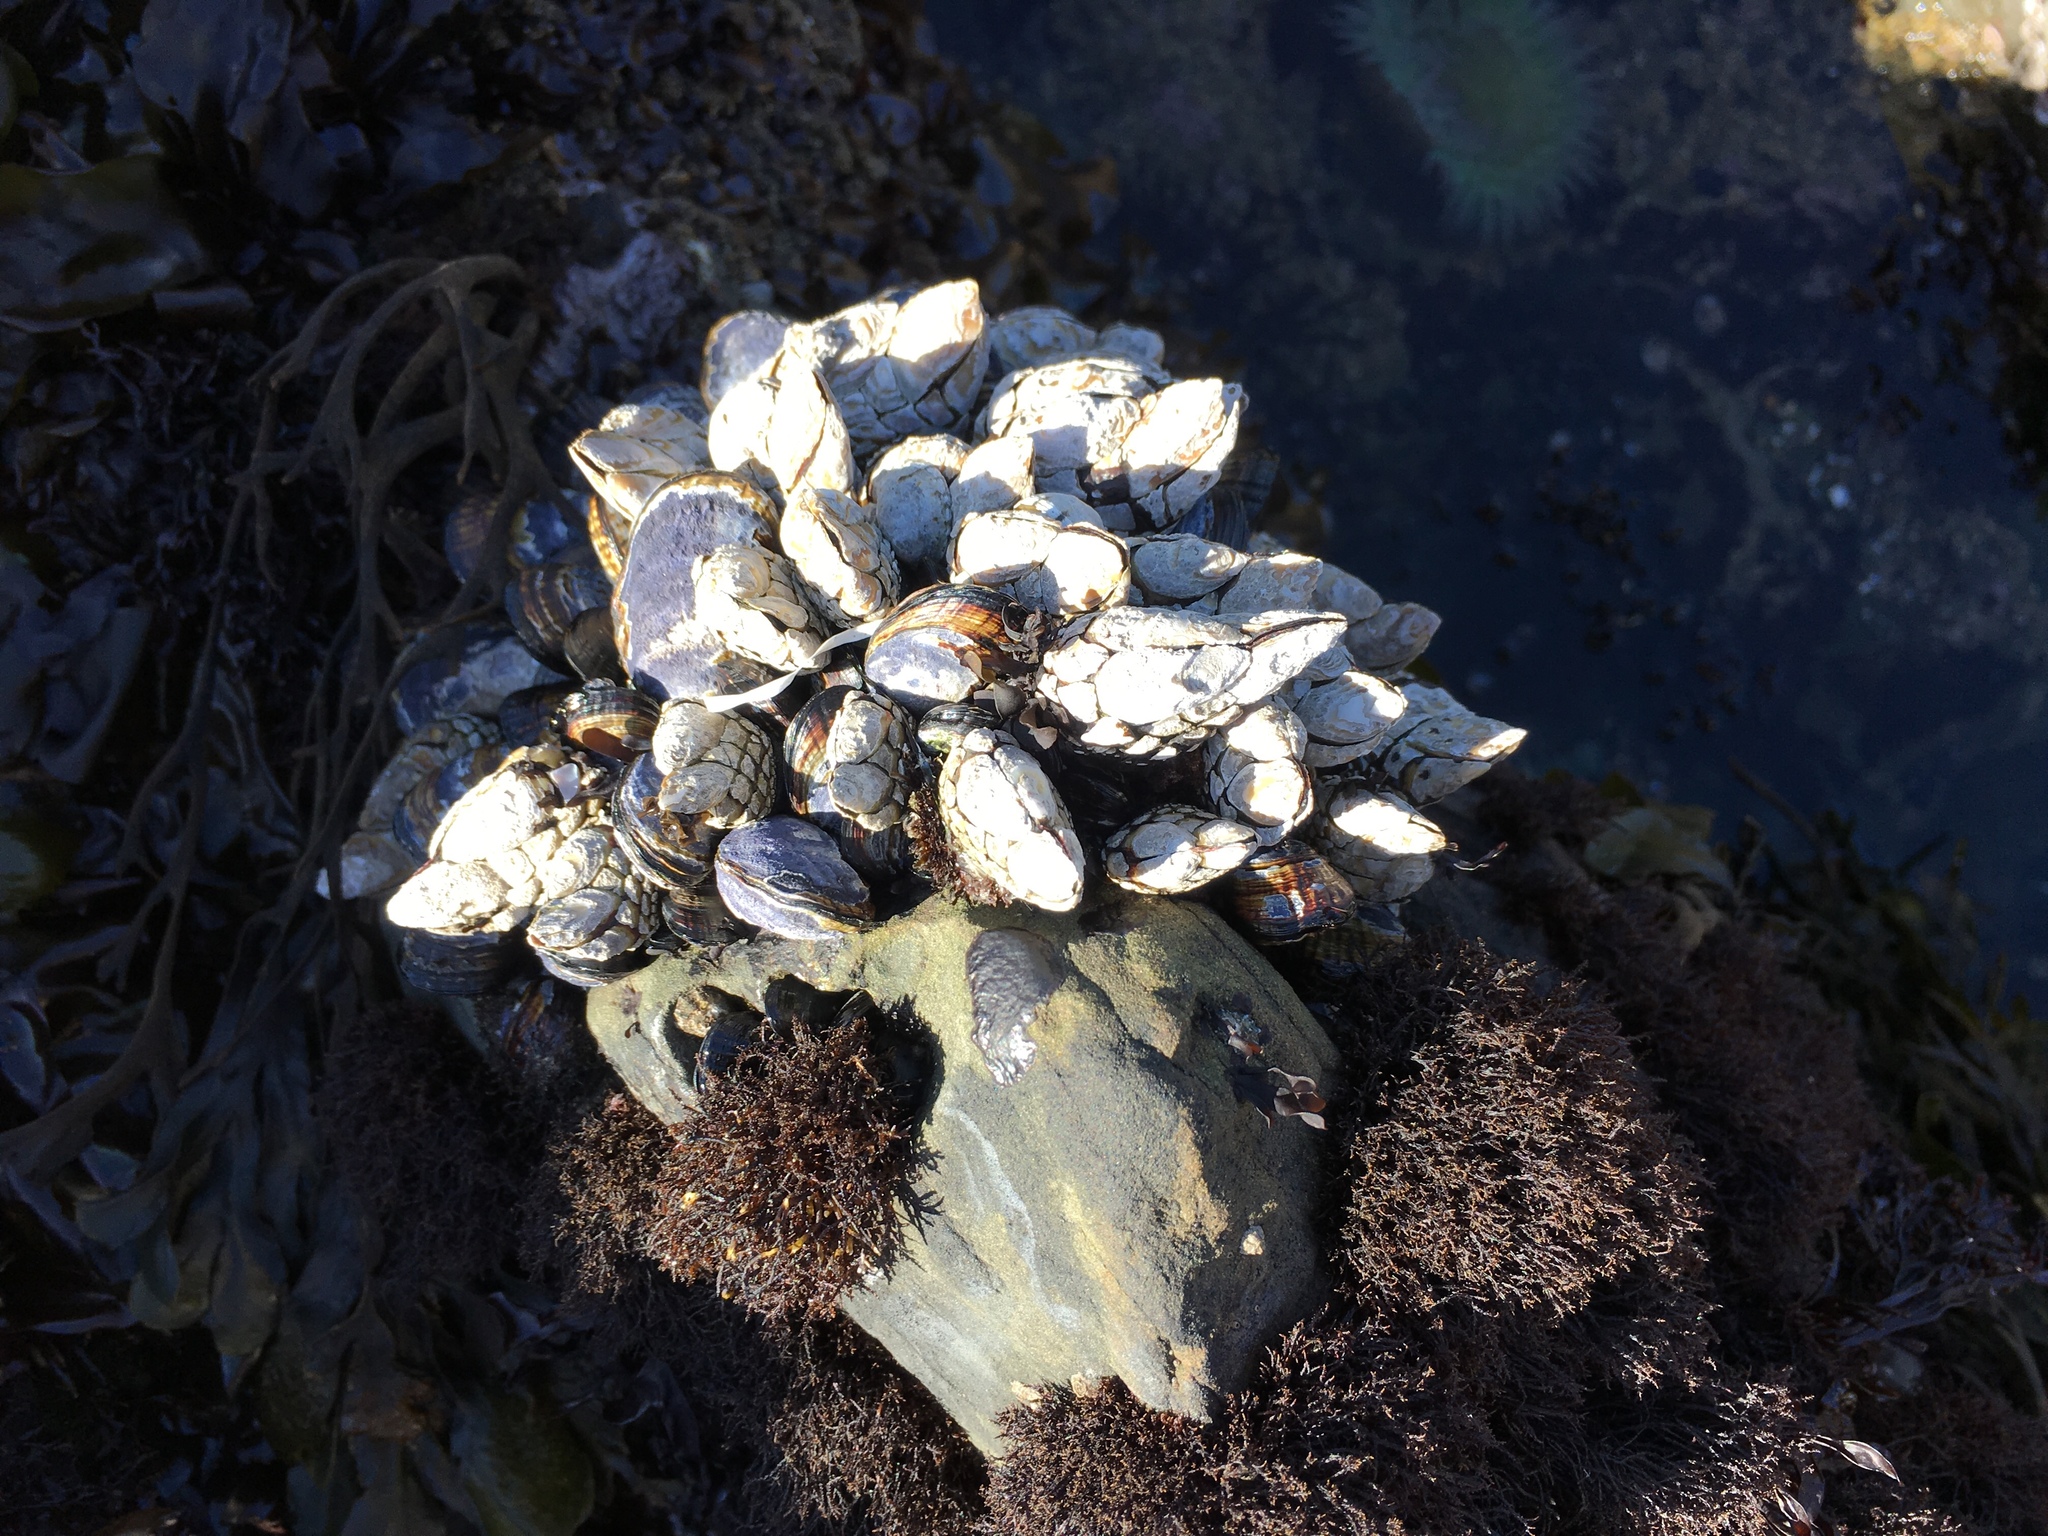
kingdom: Animalia
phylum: Arthropoda
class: Maxillopoda
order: Pedunculata
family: Pollicipedidae
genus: Pollicipes
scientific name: Pollicipes polymerus
